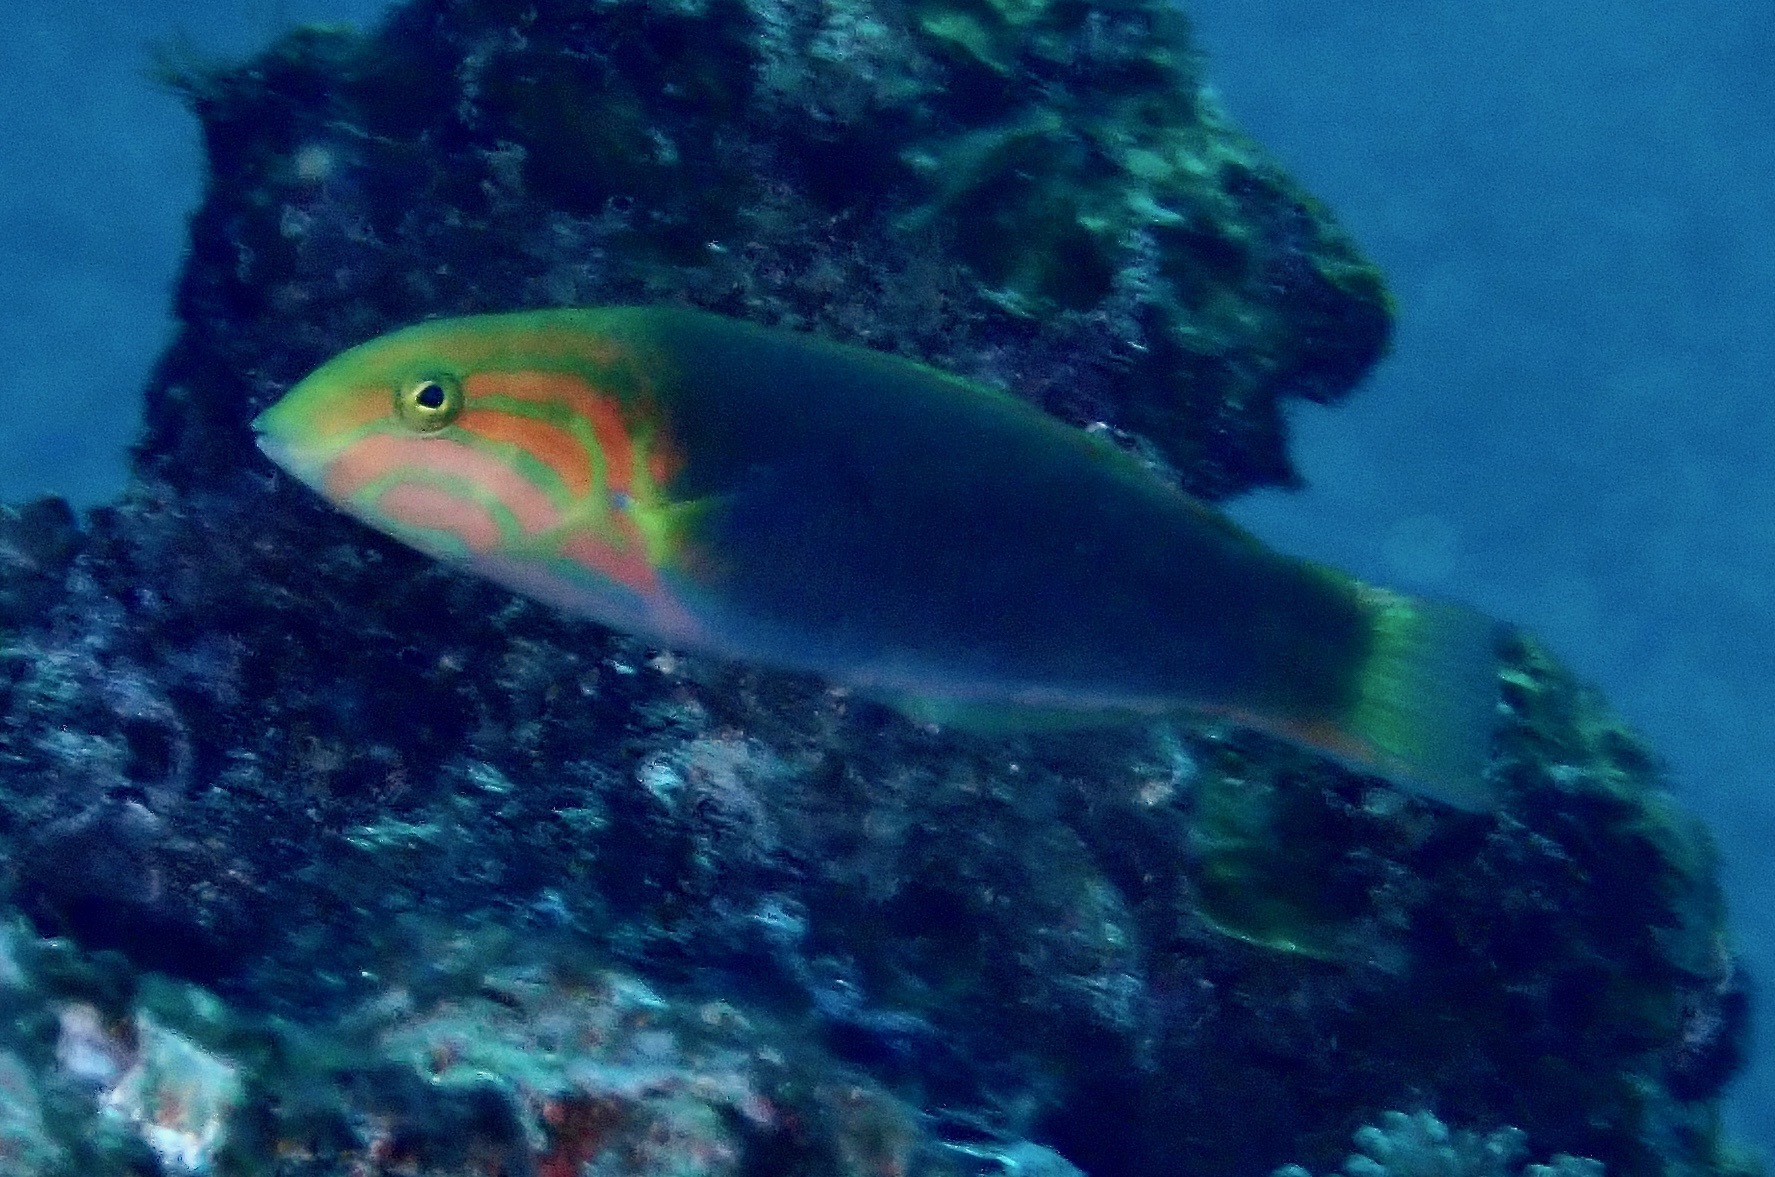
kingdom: Animalia
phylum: Chordata
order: Perciformes
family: Labridae
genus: Thalassoma
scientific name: Thalassoma lutescens
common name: Green moon wrasse
